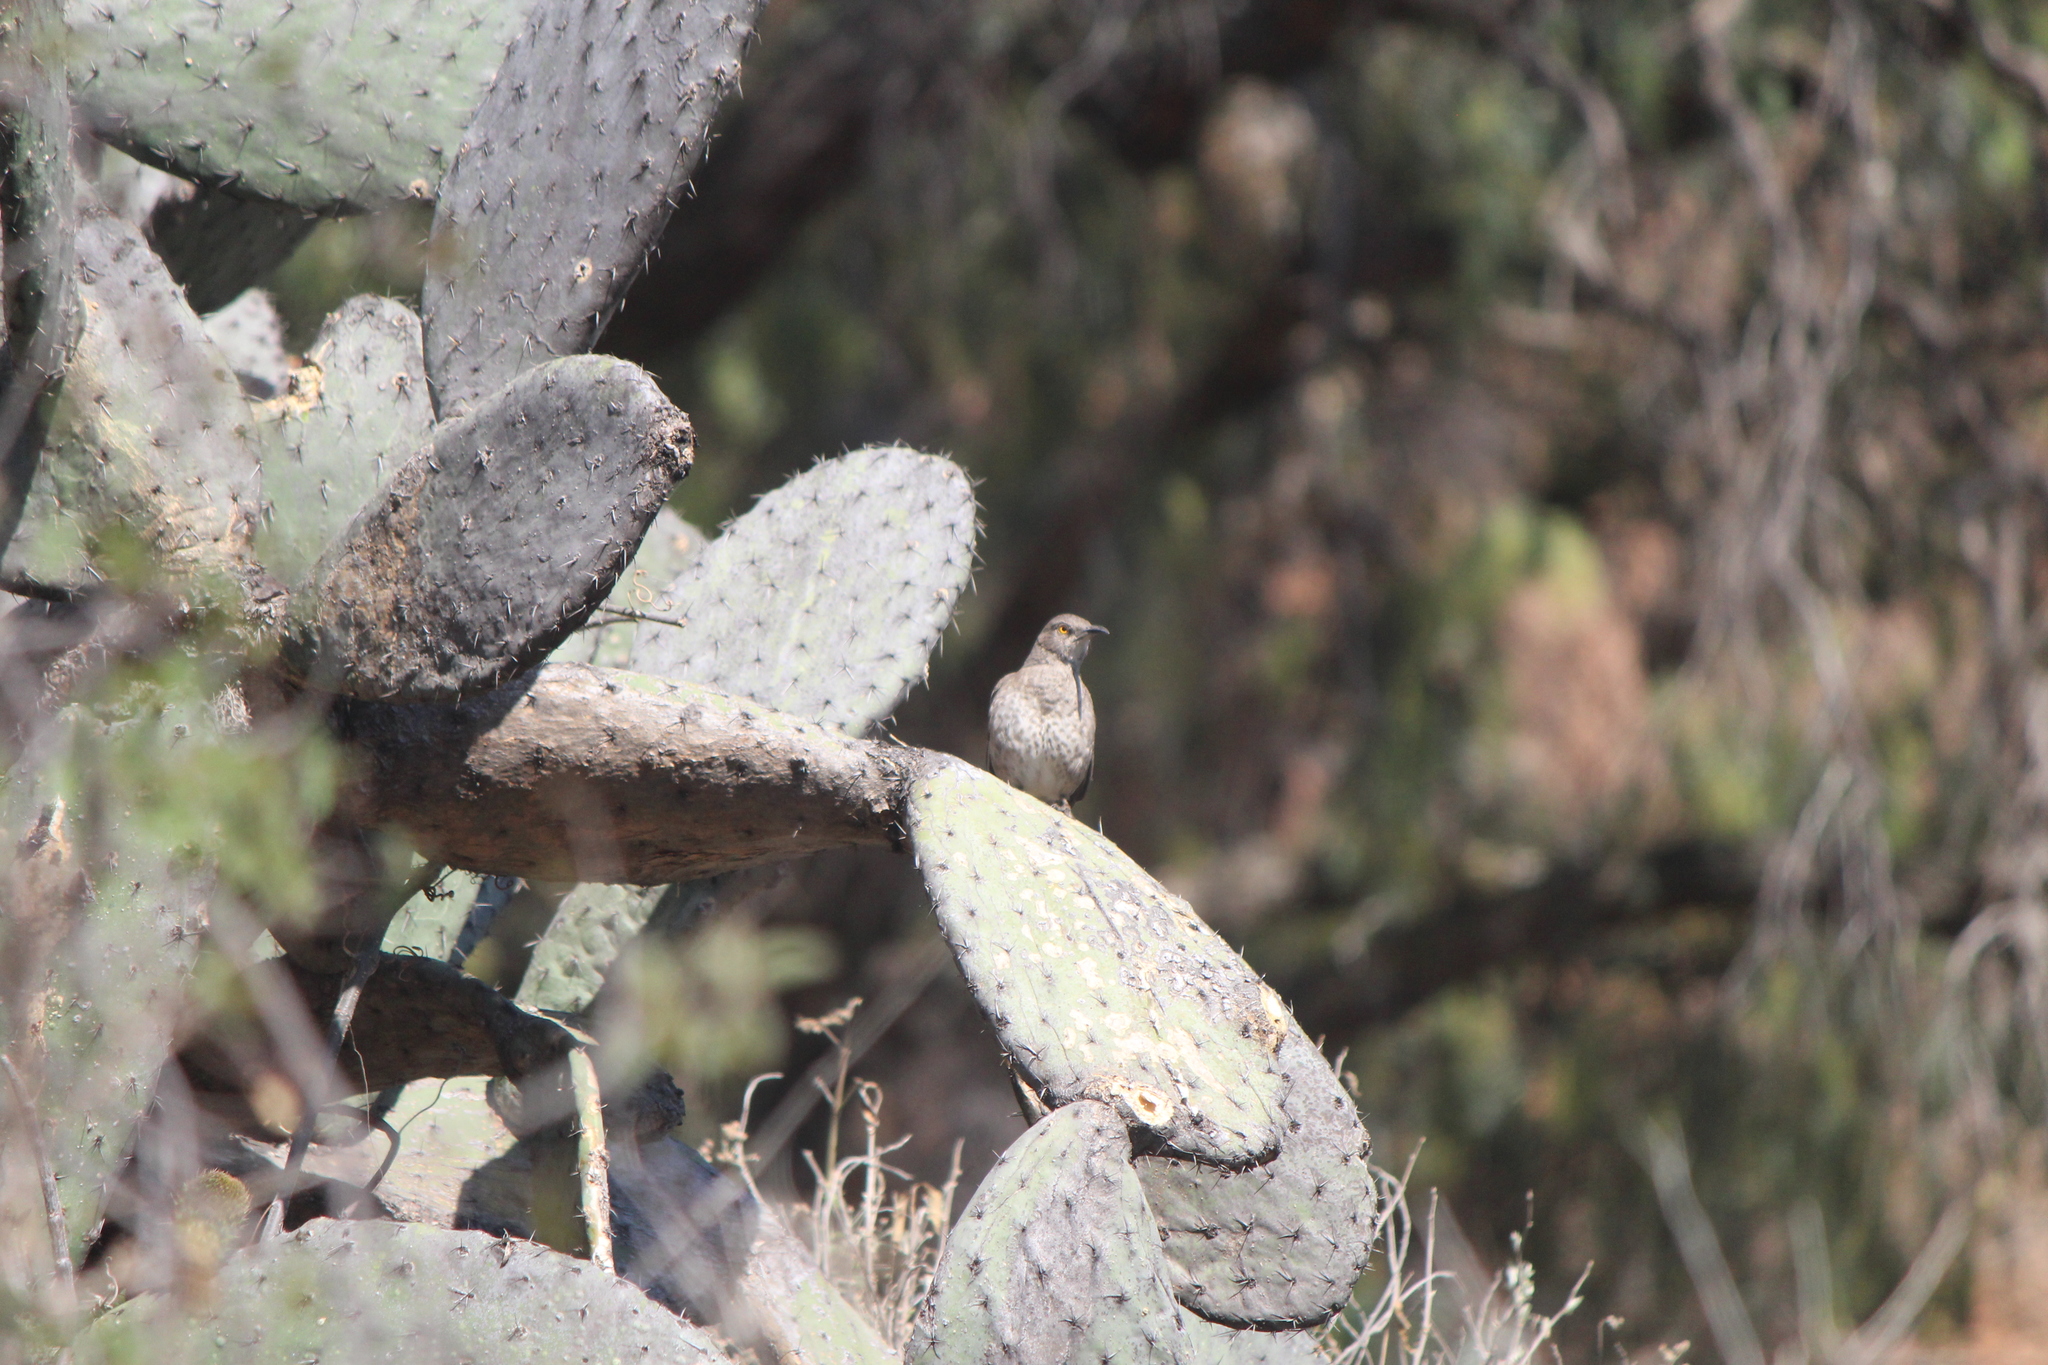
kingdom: Animalia
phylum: Chordata
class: Aves
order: Passeriformes
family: Mimidae
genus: Toxostoma
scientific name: Toxostoma curvirostre
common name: Curve-billed thrasher
